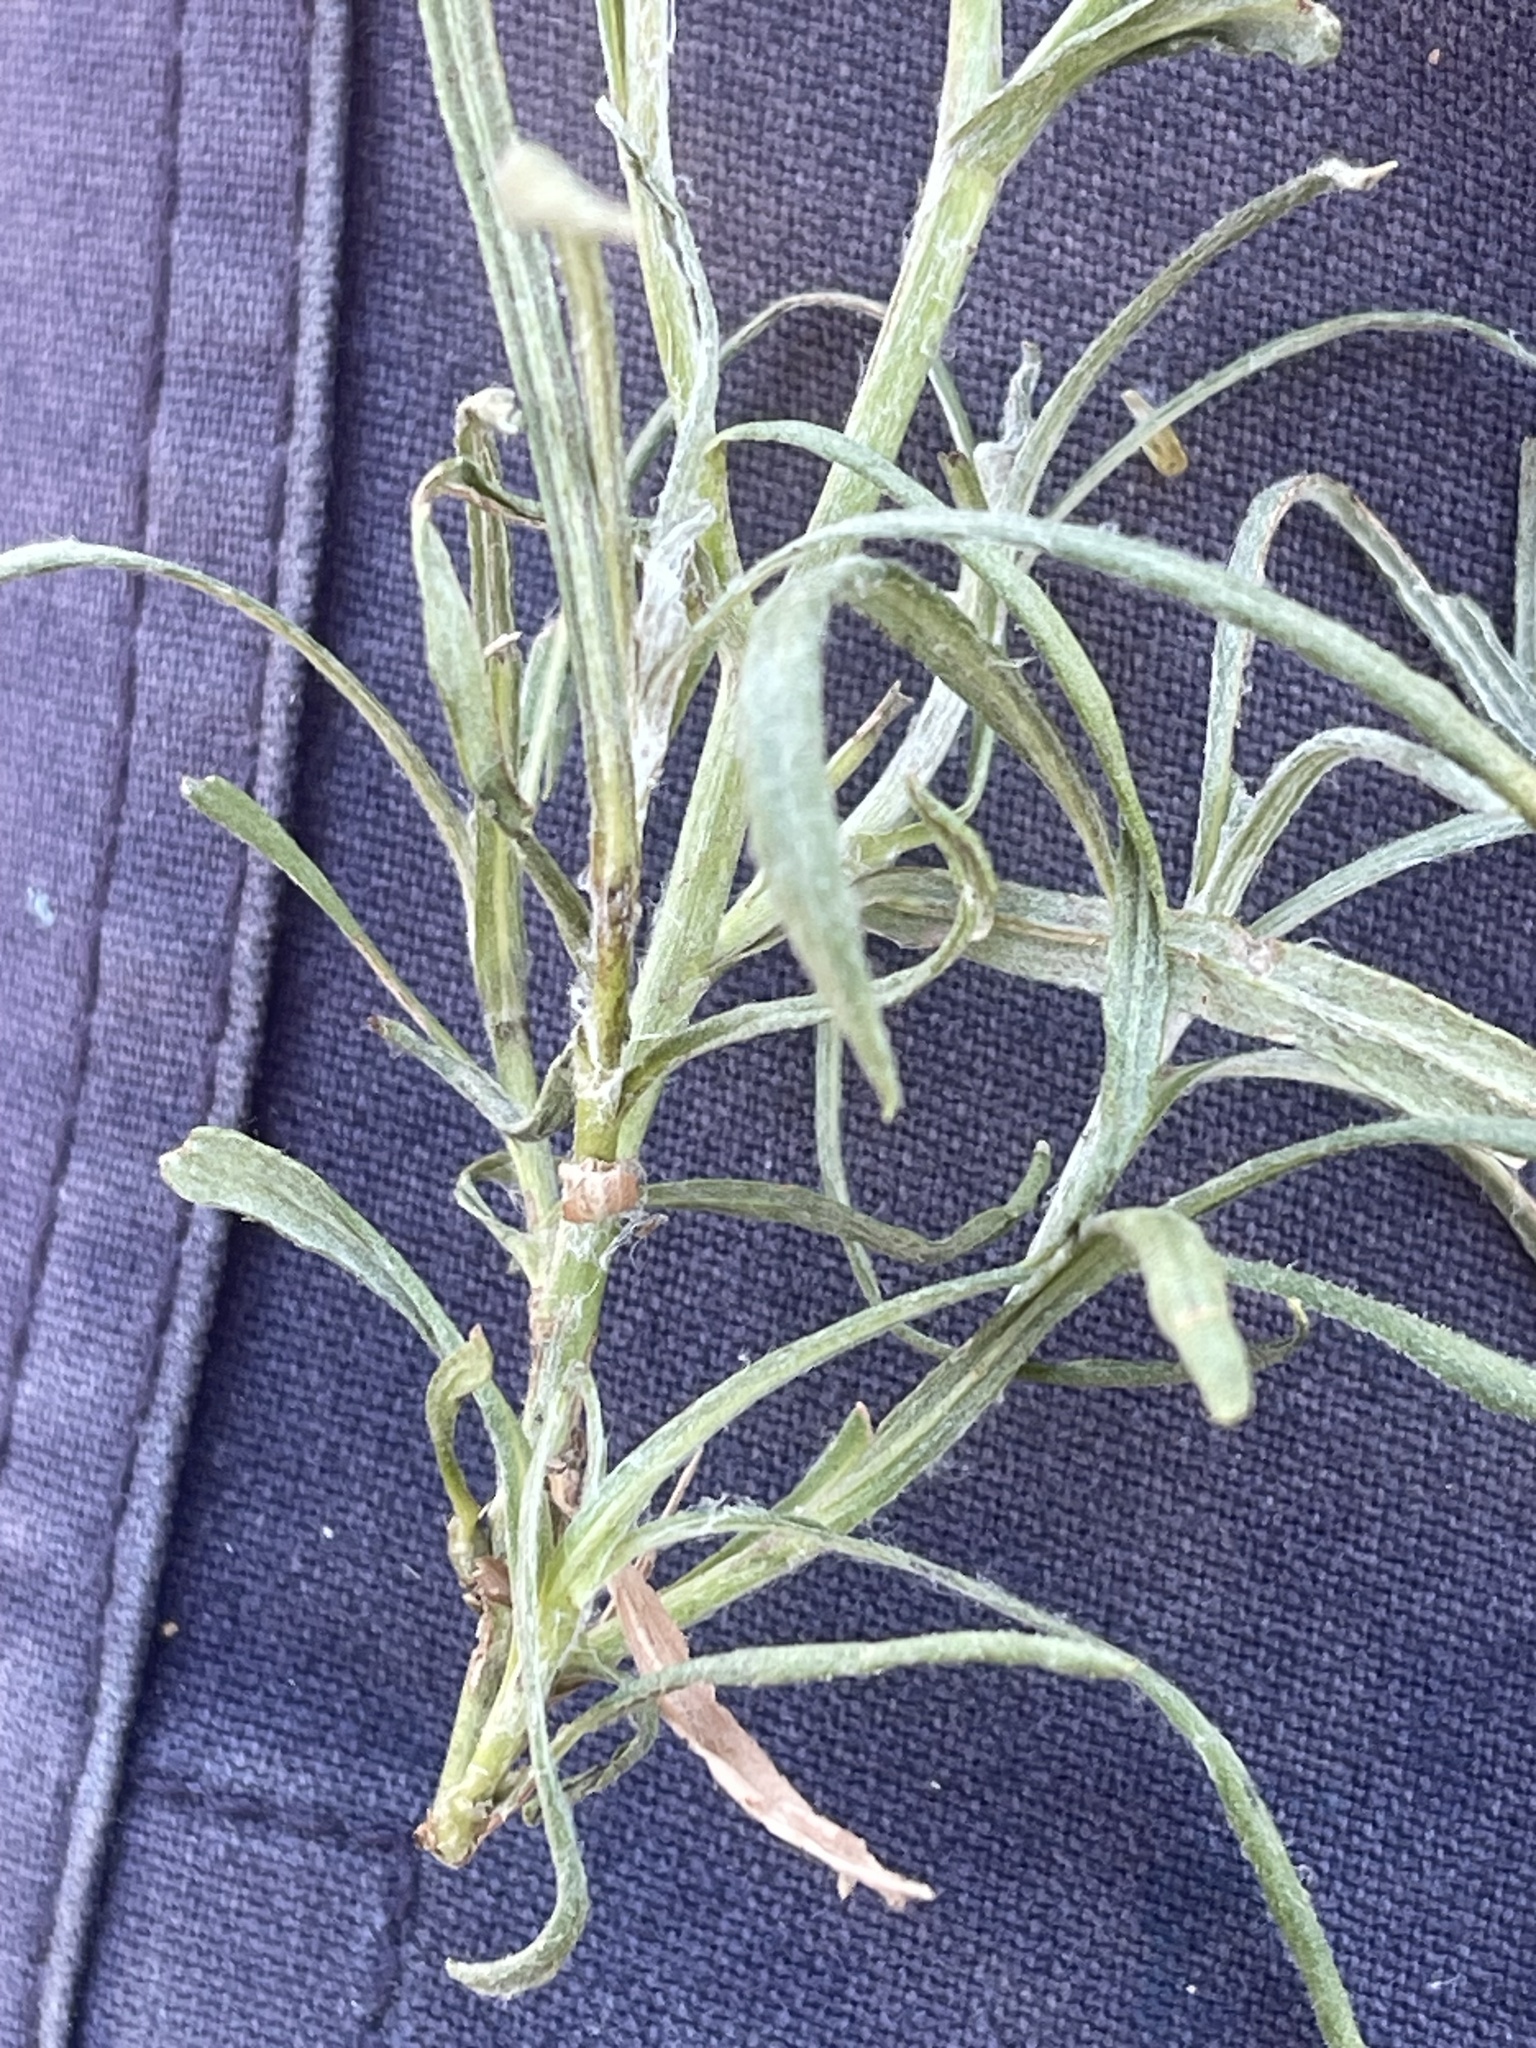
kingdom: Plantae
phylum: Tracheophyta
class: Magnoliopsida
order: Asterales
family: Asteraceae
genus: Coronidium
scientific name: Coronidium gunnianum
